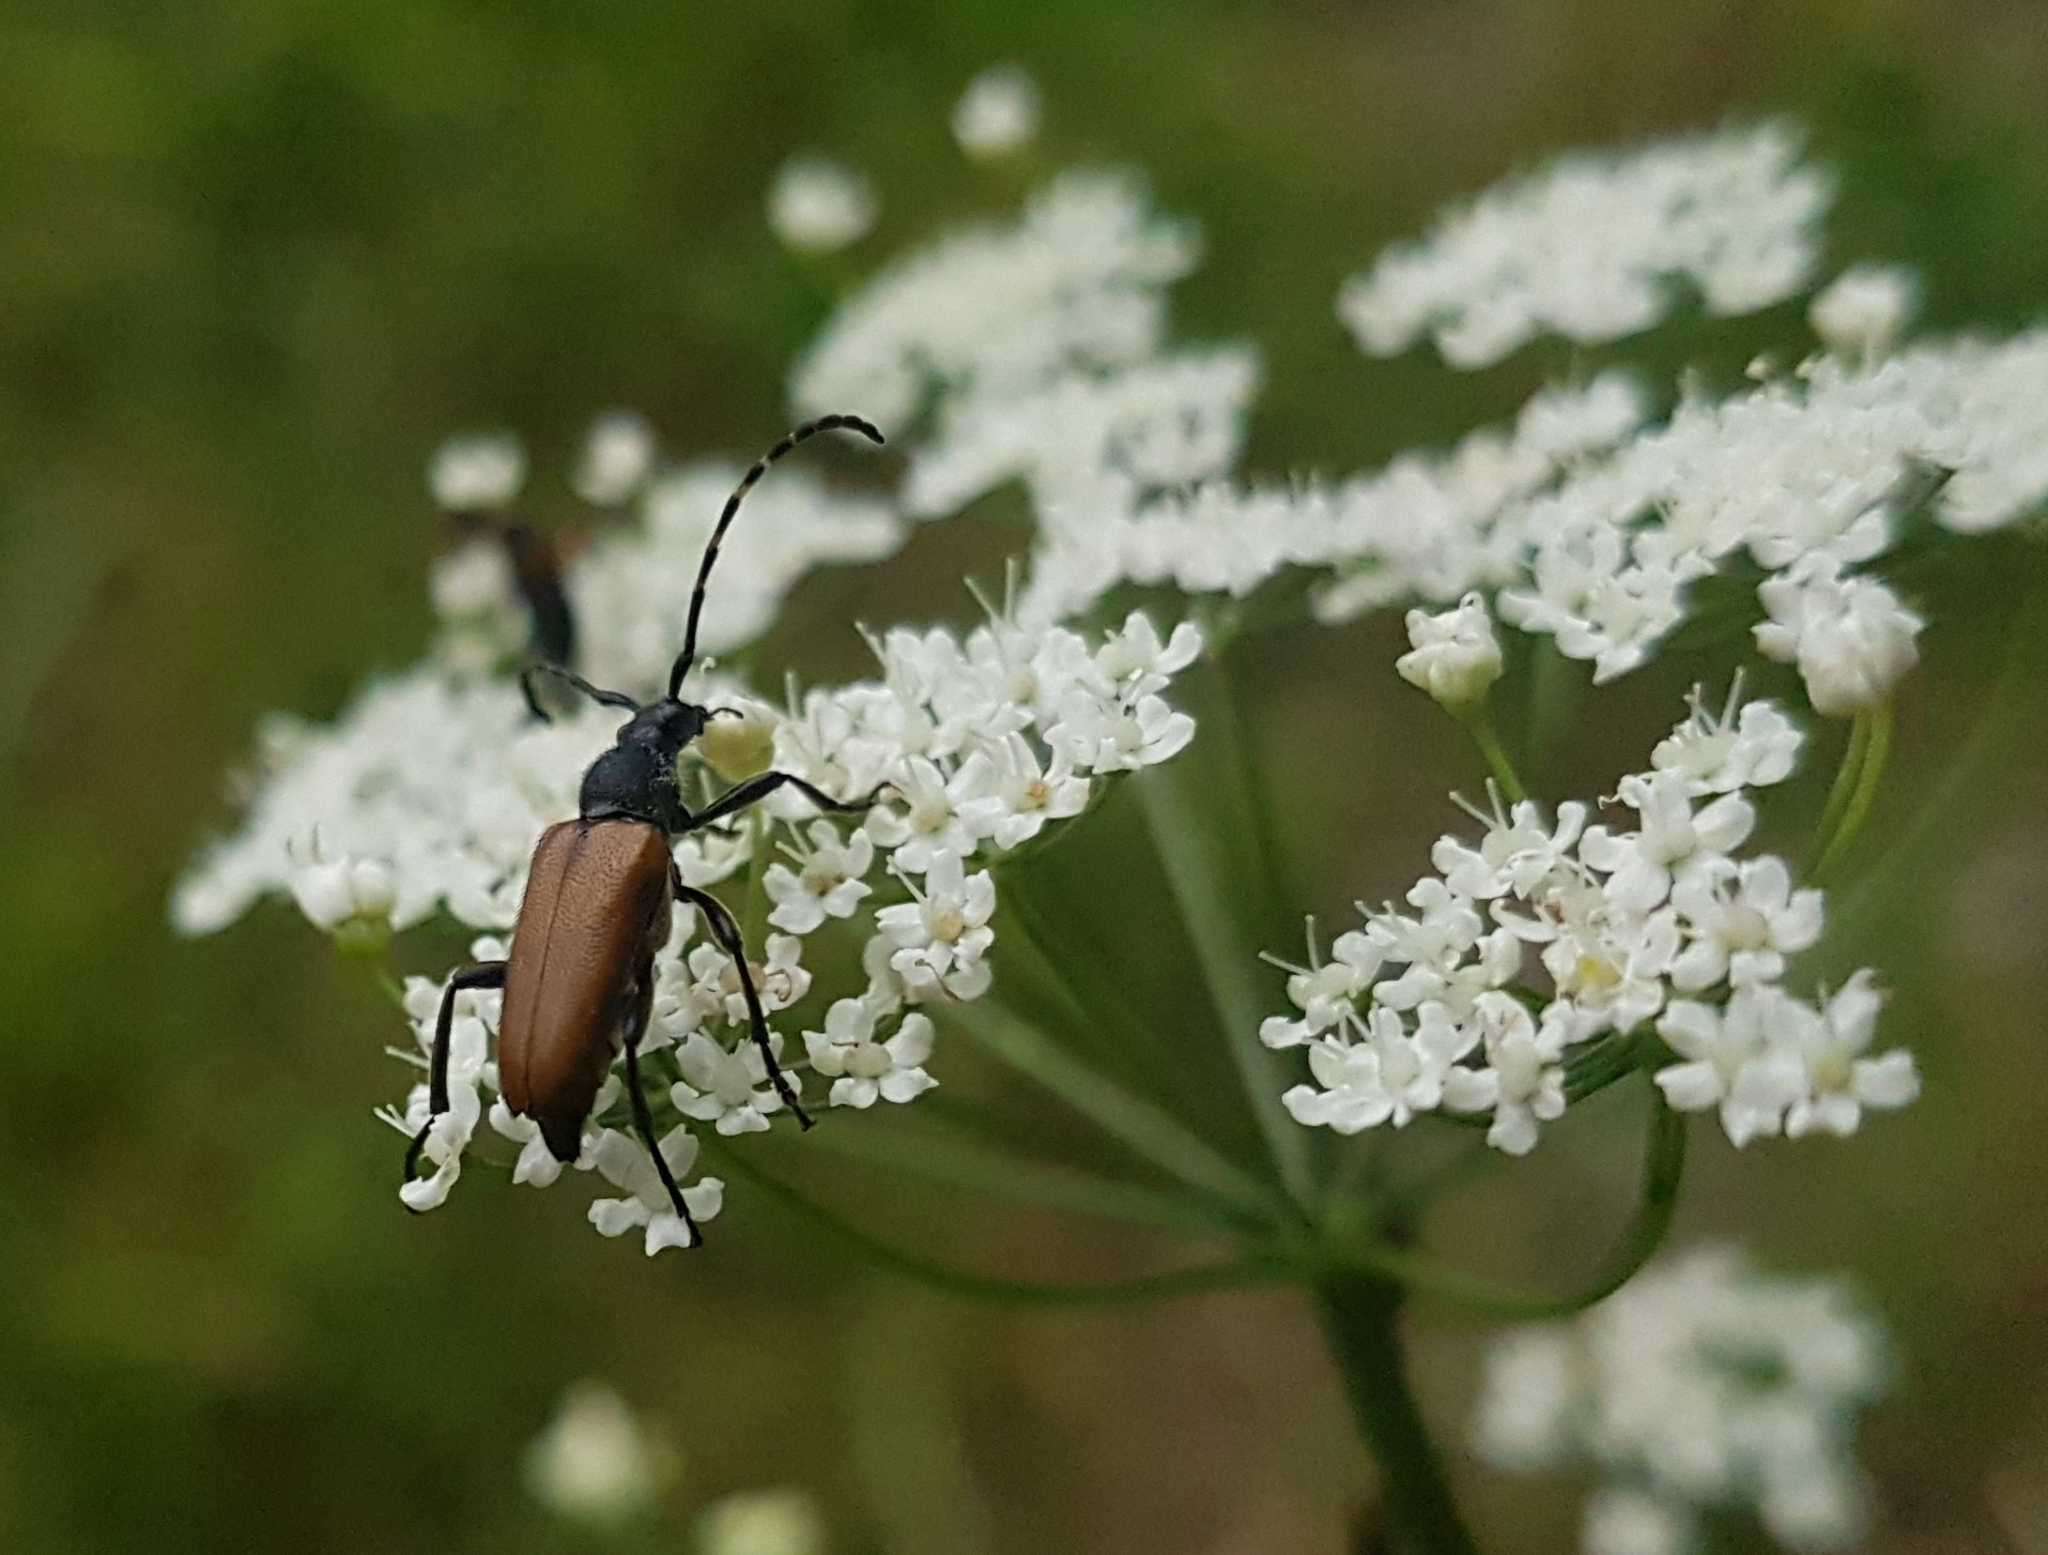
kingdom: Animalia
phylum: Arthropoda
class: Insecta
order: Coleoptera
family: Cerambycidae
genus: Paracorymbia
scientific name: Paracorymbia maculicornis
